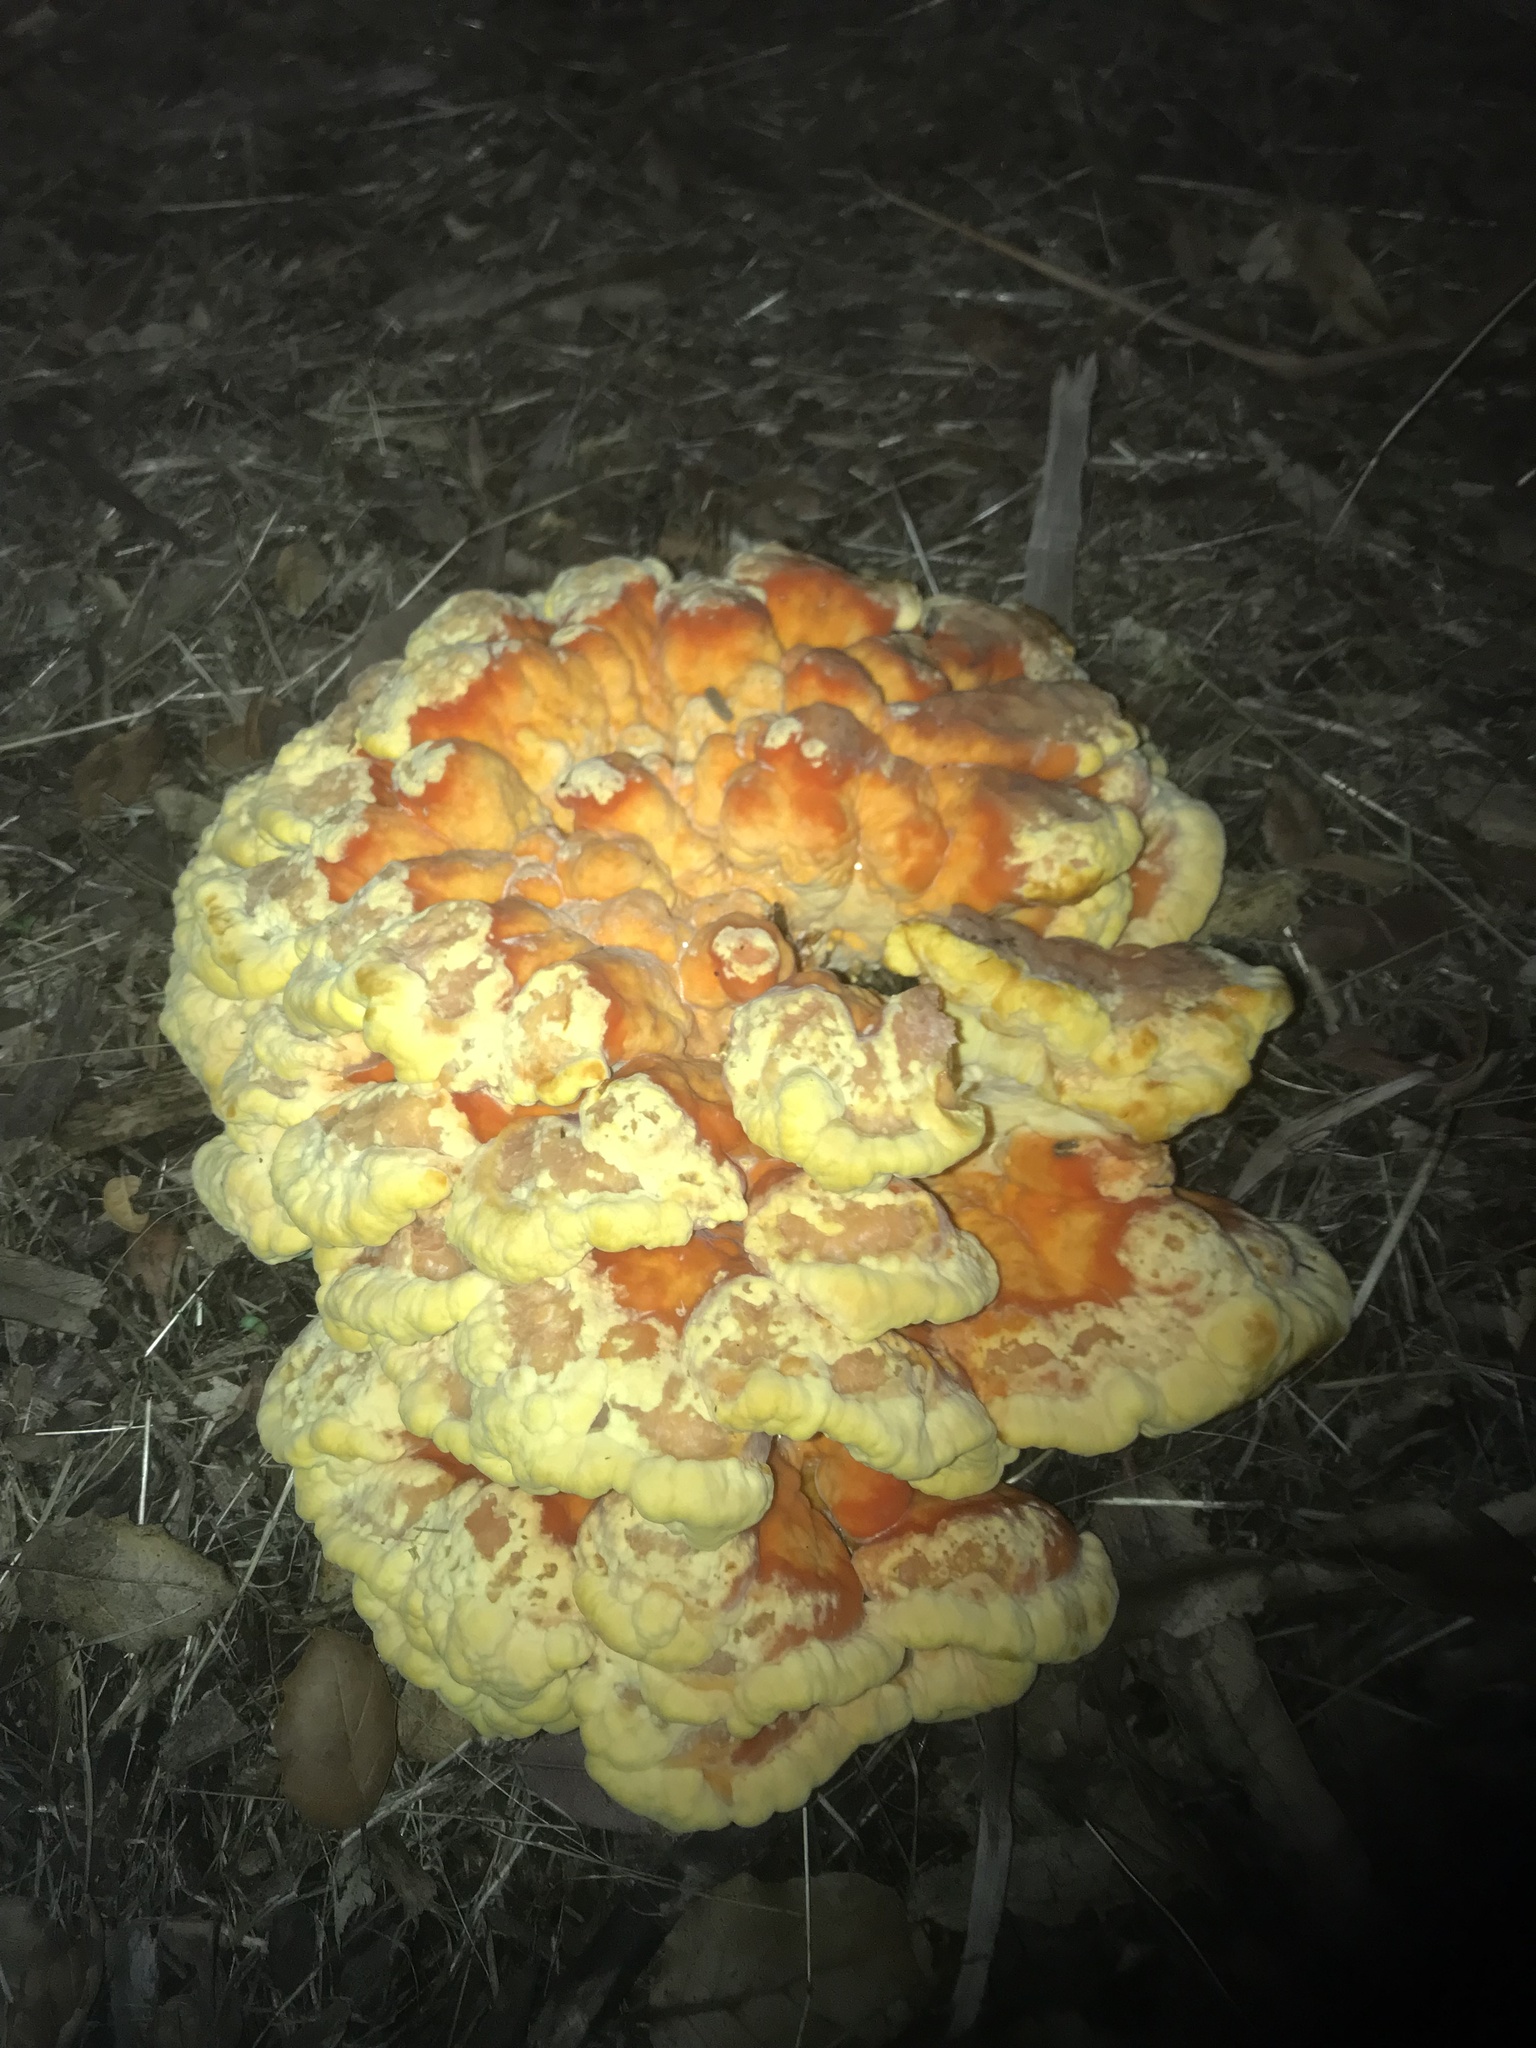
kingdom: Fungi
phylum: Basidiomycota
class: Agaricomycetes
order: Polyporales
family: Laetiporaceae
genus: Laetiporus
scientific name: Laetiporus gilbertsonii
